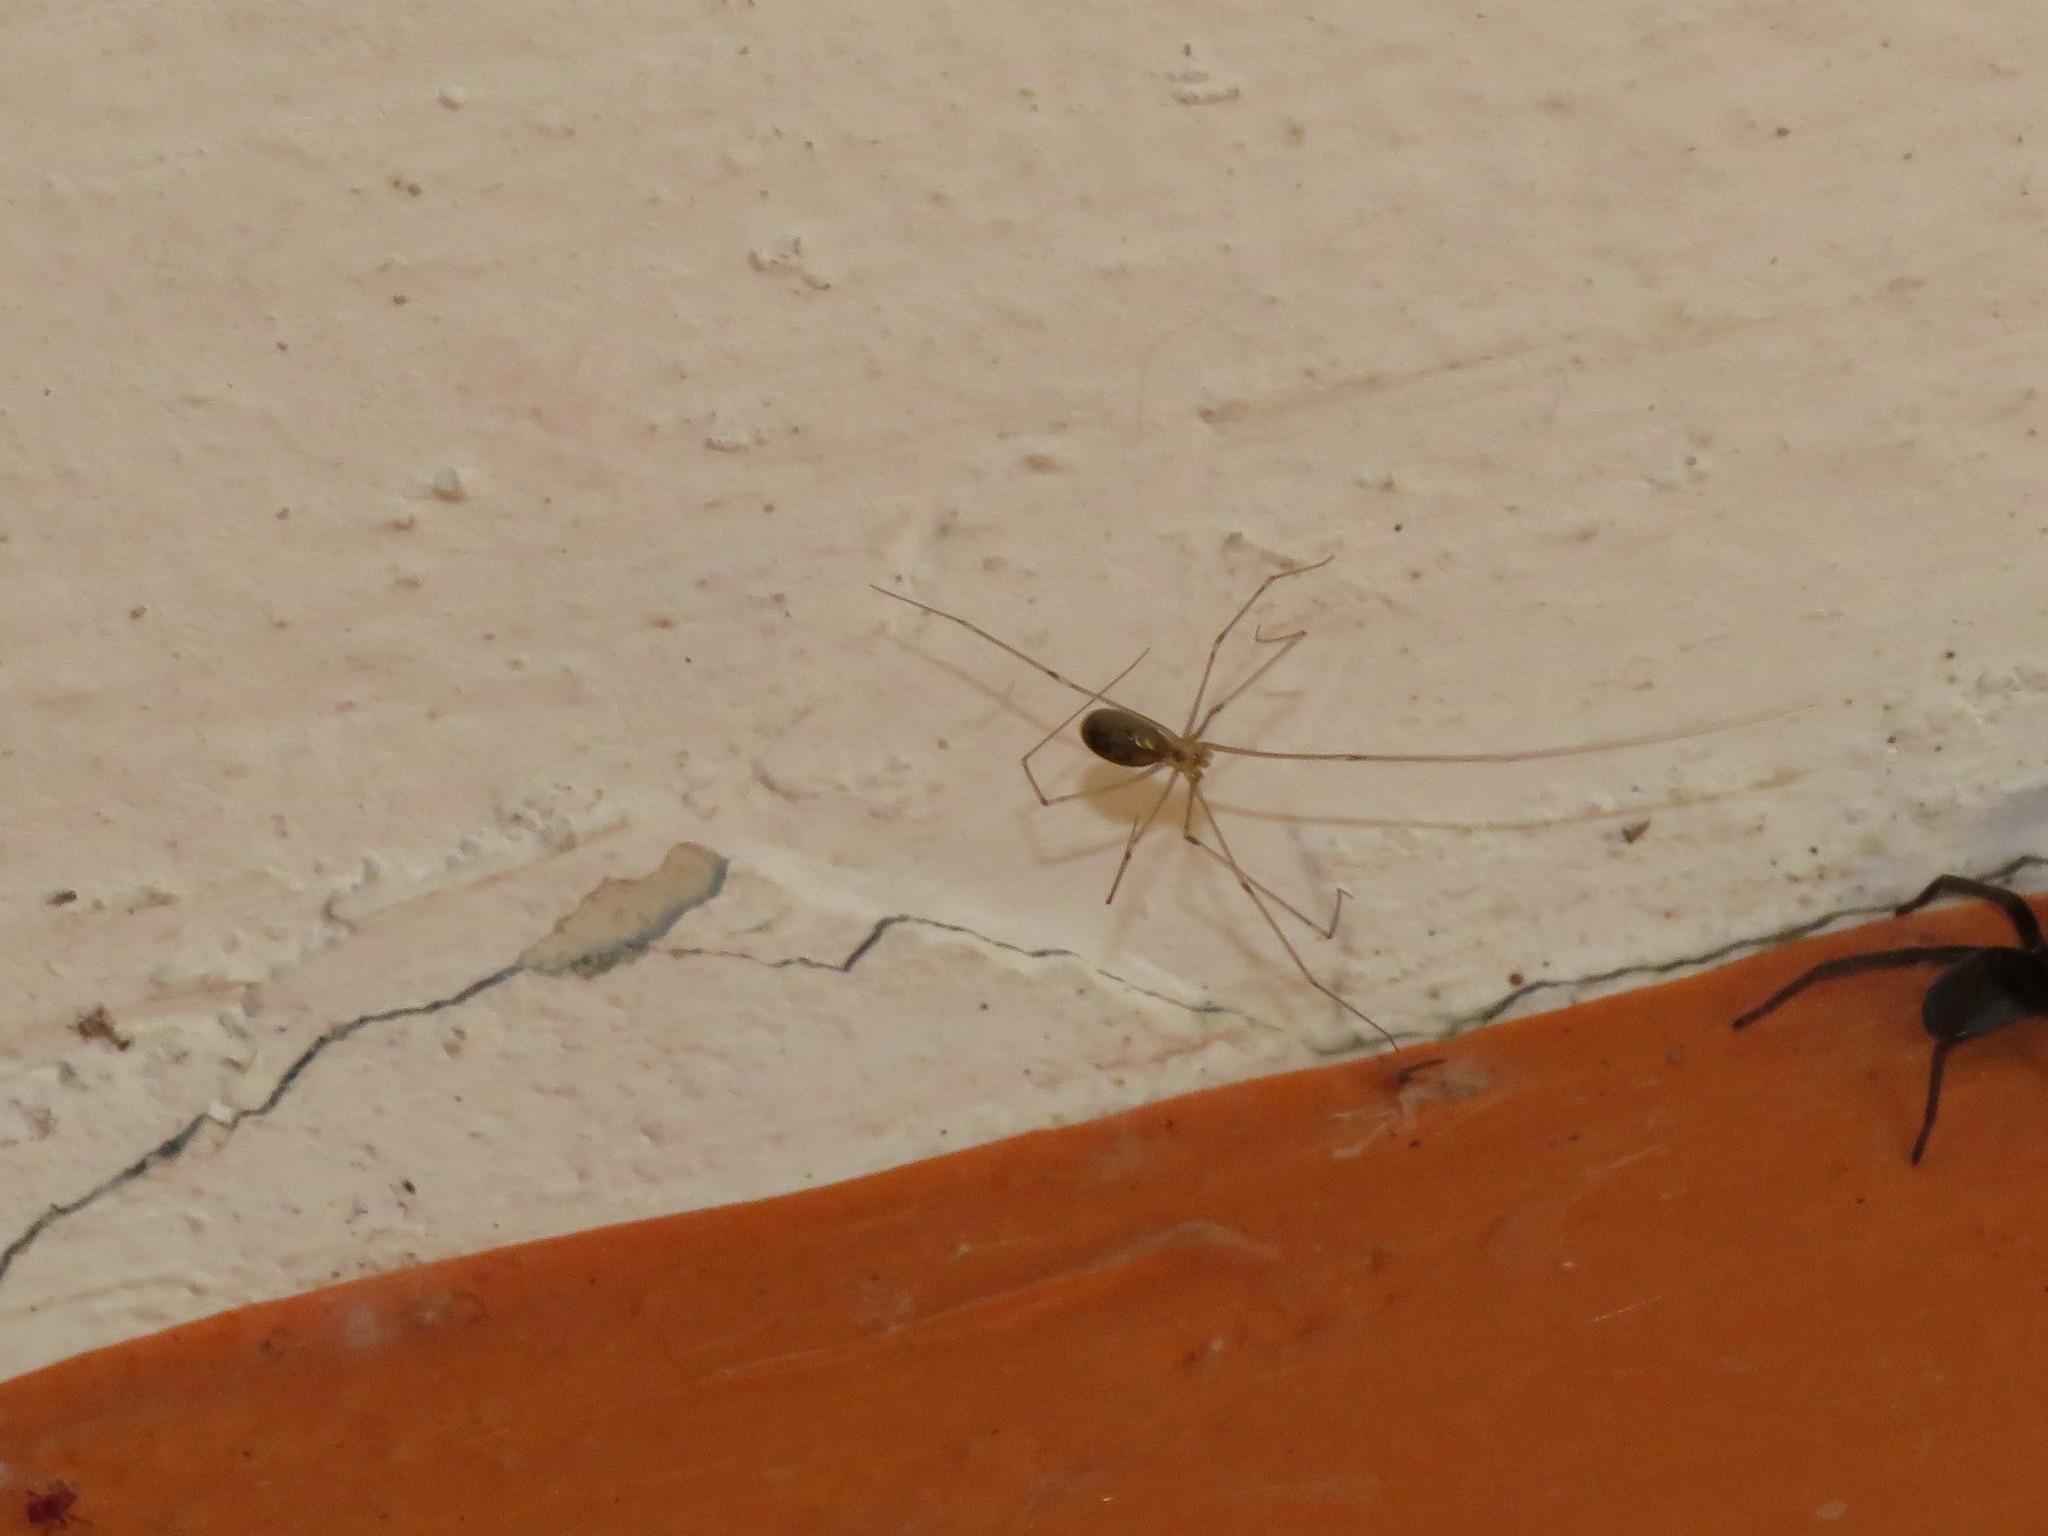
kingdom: Animalia
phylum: Arthropoda
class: Arachnida
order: Araneae
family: Pholcidae
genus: Pholcus
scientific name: Pholcus phalangioides
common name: Longbodied cellar spider
